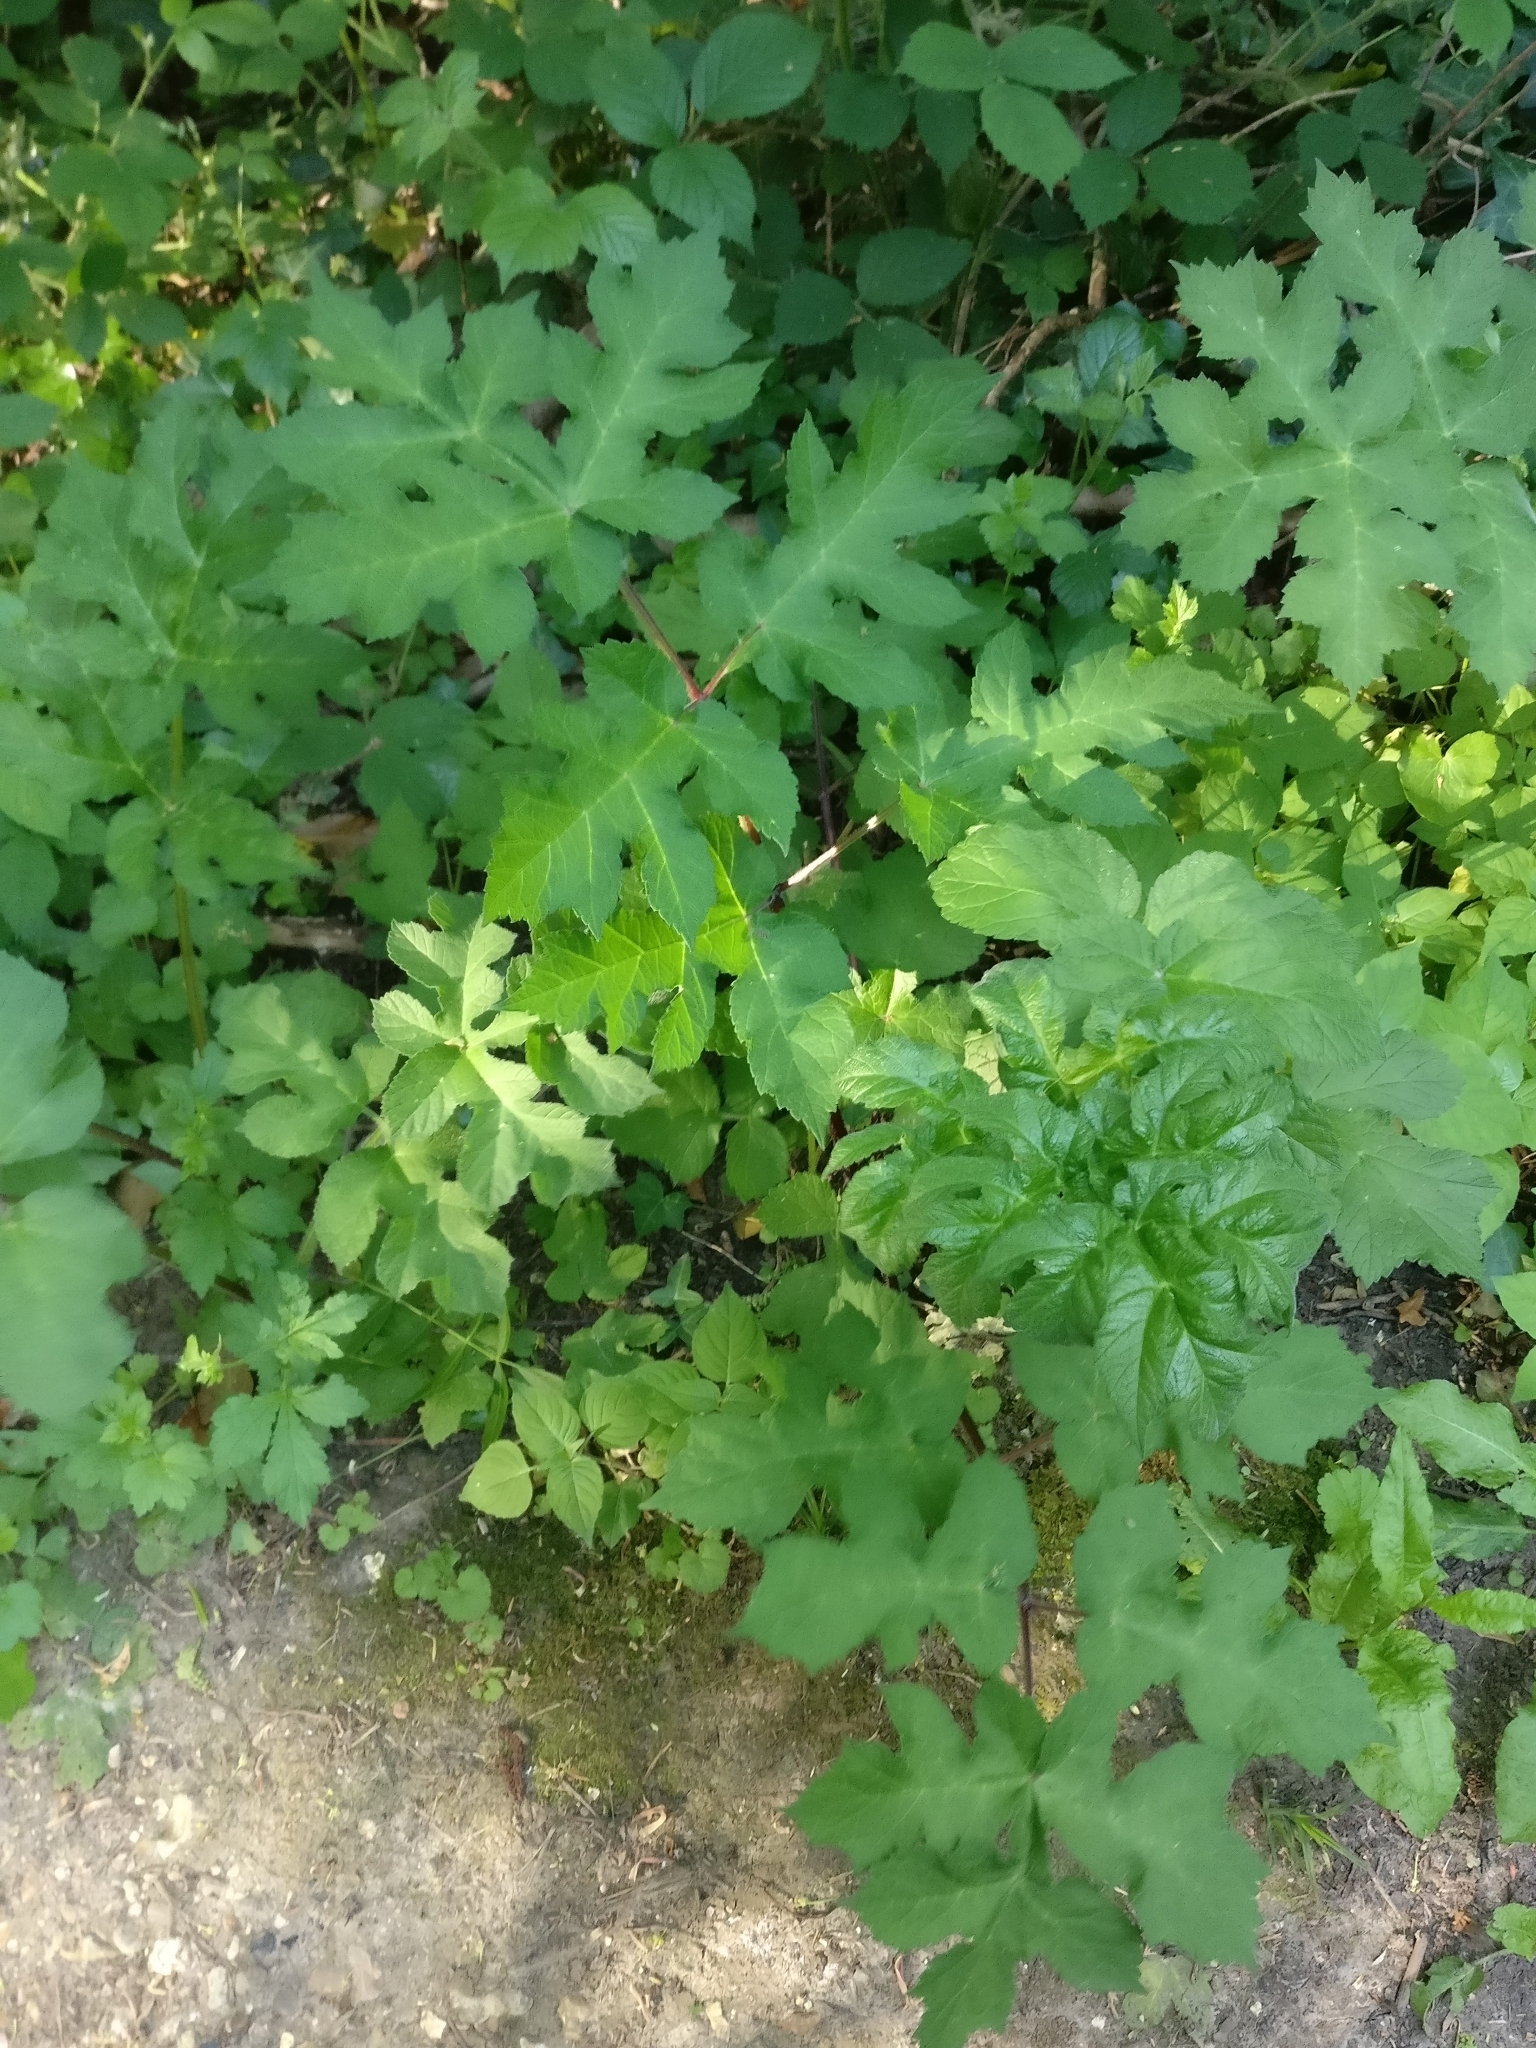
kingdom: Plantae
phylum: Tracheophyta
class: Magnoliopsida
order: Apiales
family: Apiaceae
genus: Heracleum
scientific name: Heracleum sphondylium
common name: Hogweed
